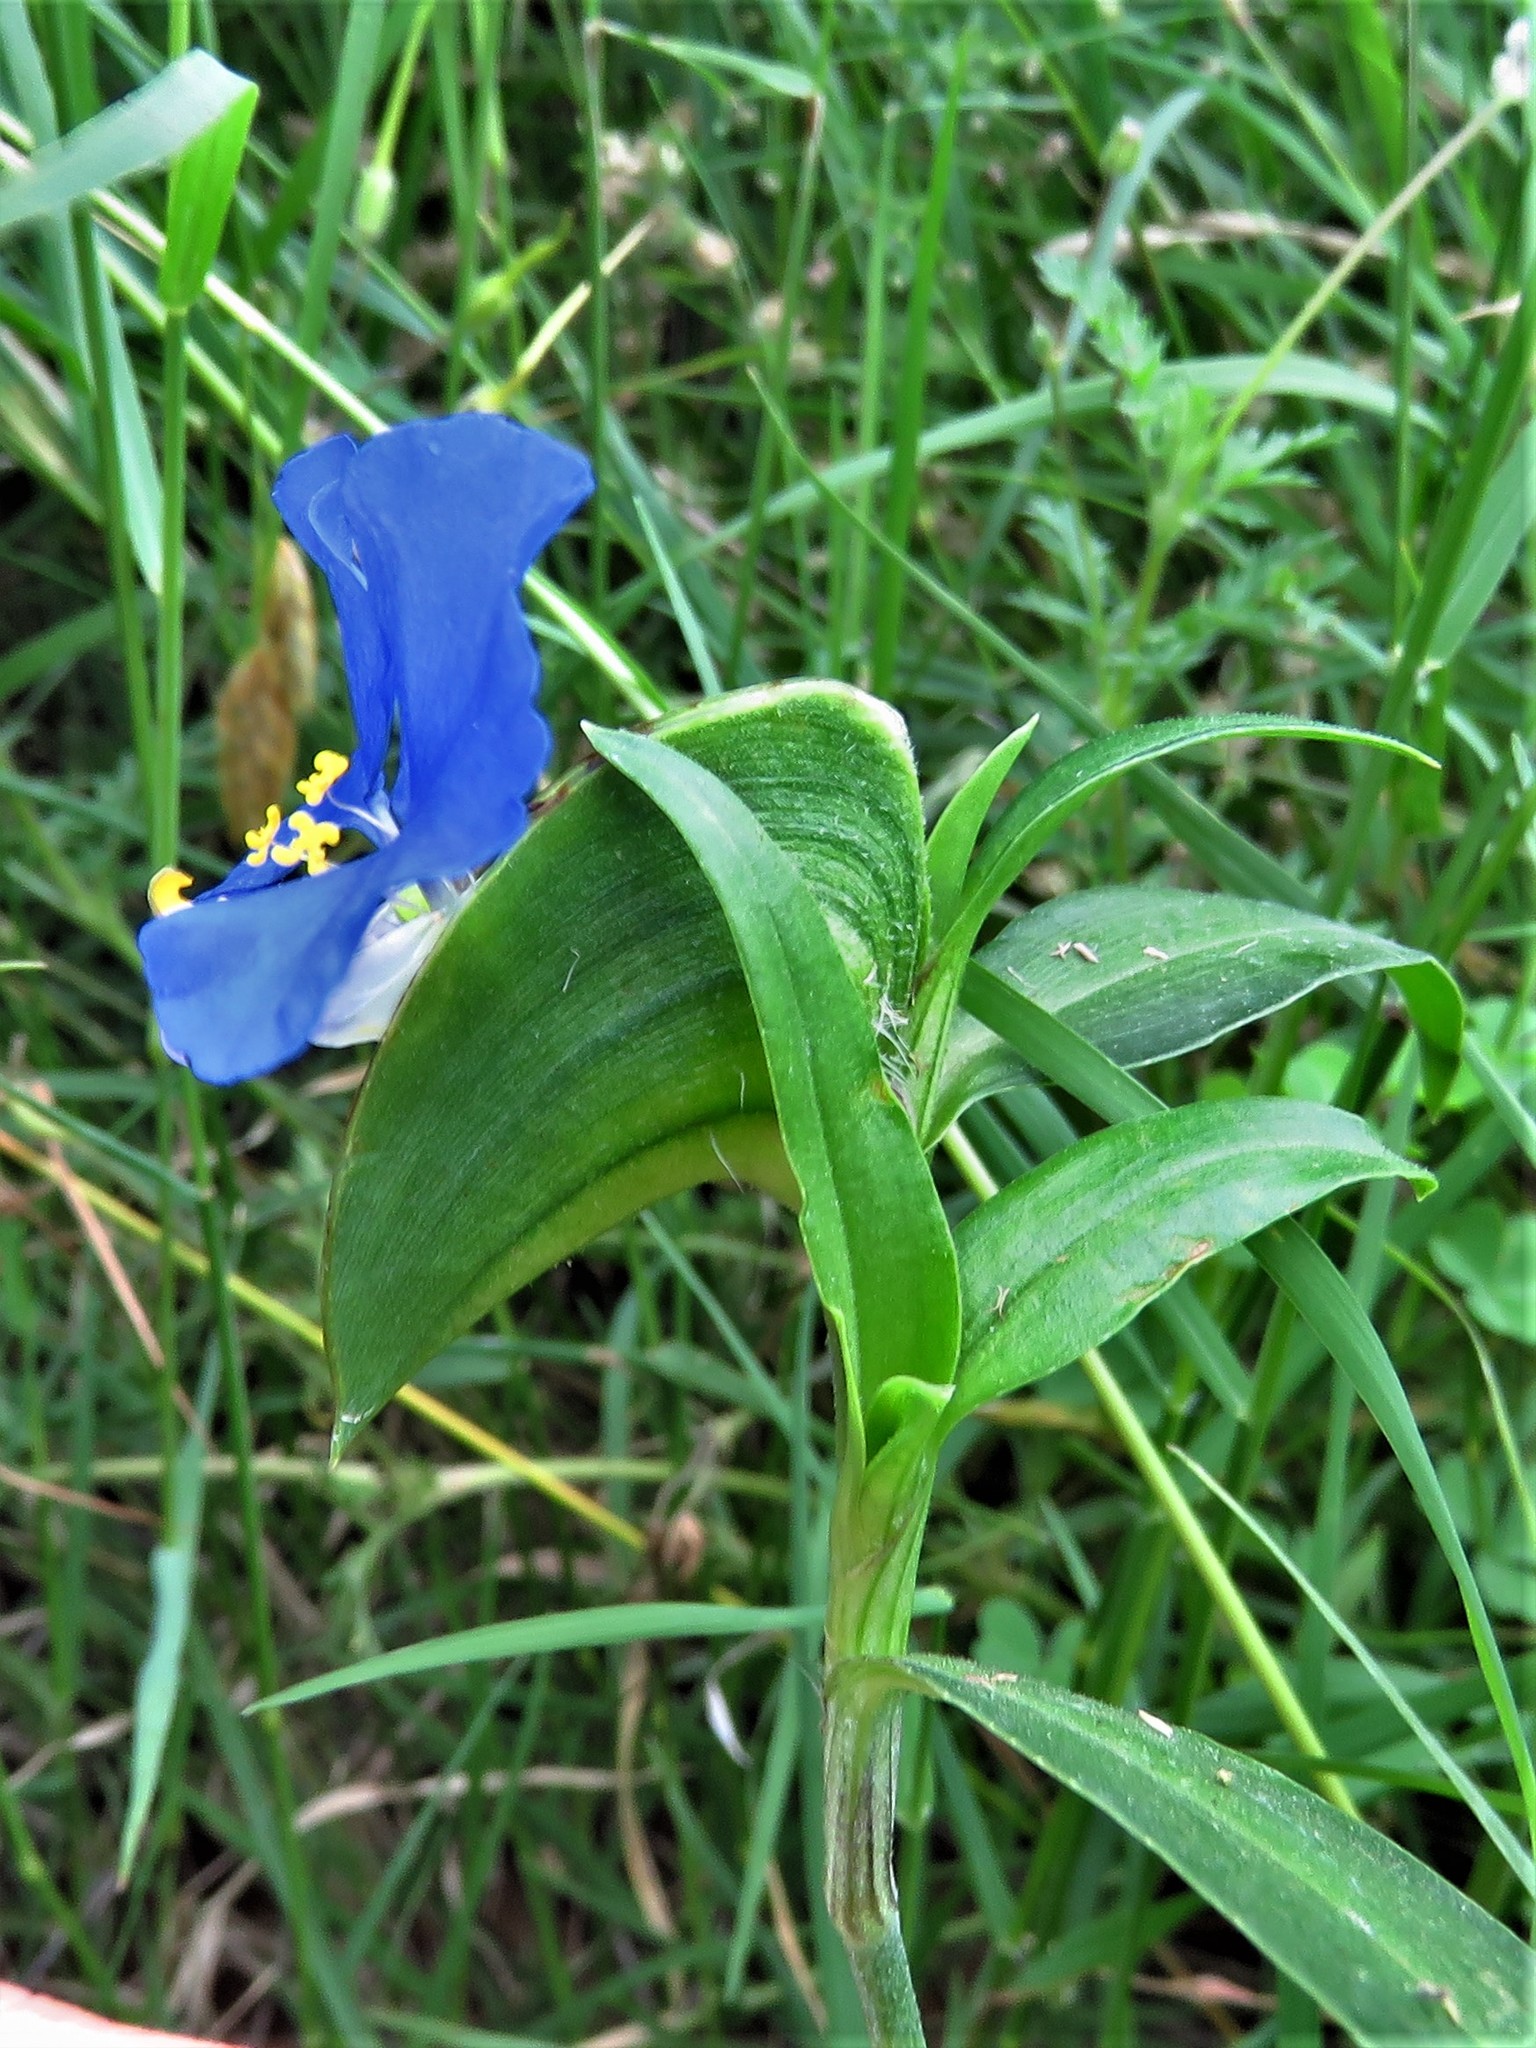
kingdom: Plantae
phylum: Tracheophyta
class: Liliopsida
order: Commelinales
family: Commelinaceae
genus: Commelina
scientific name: Commelina erecta
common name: Blousel blommetjie
